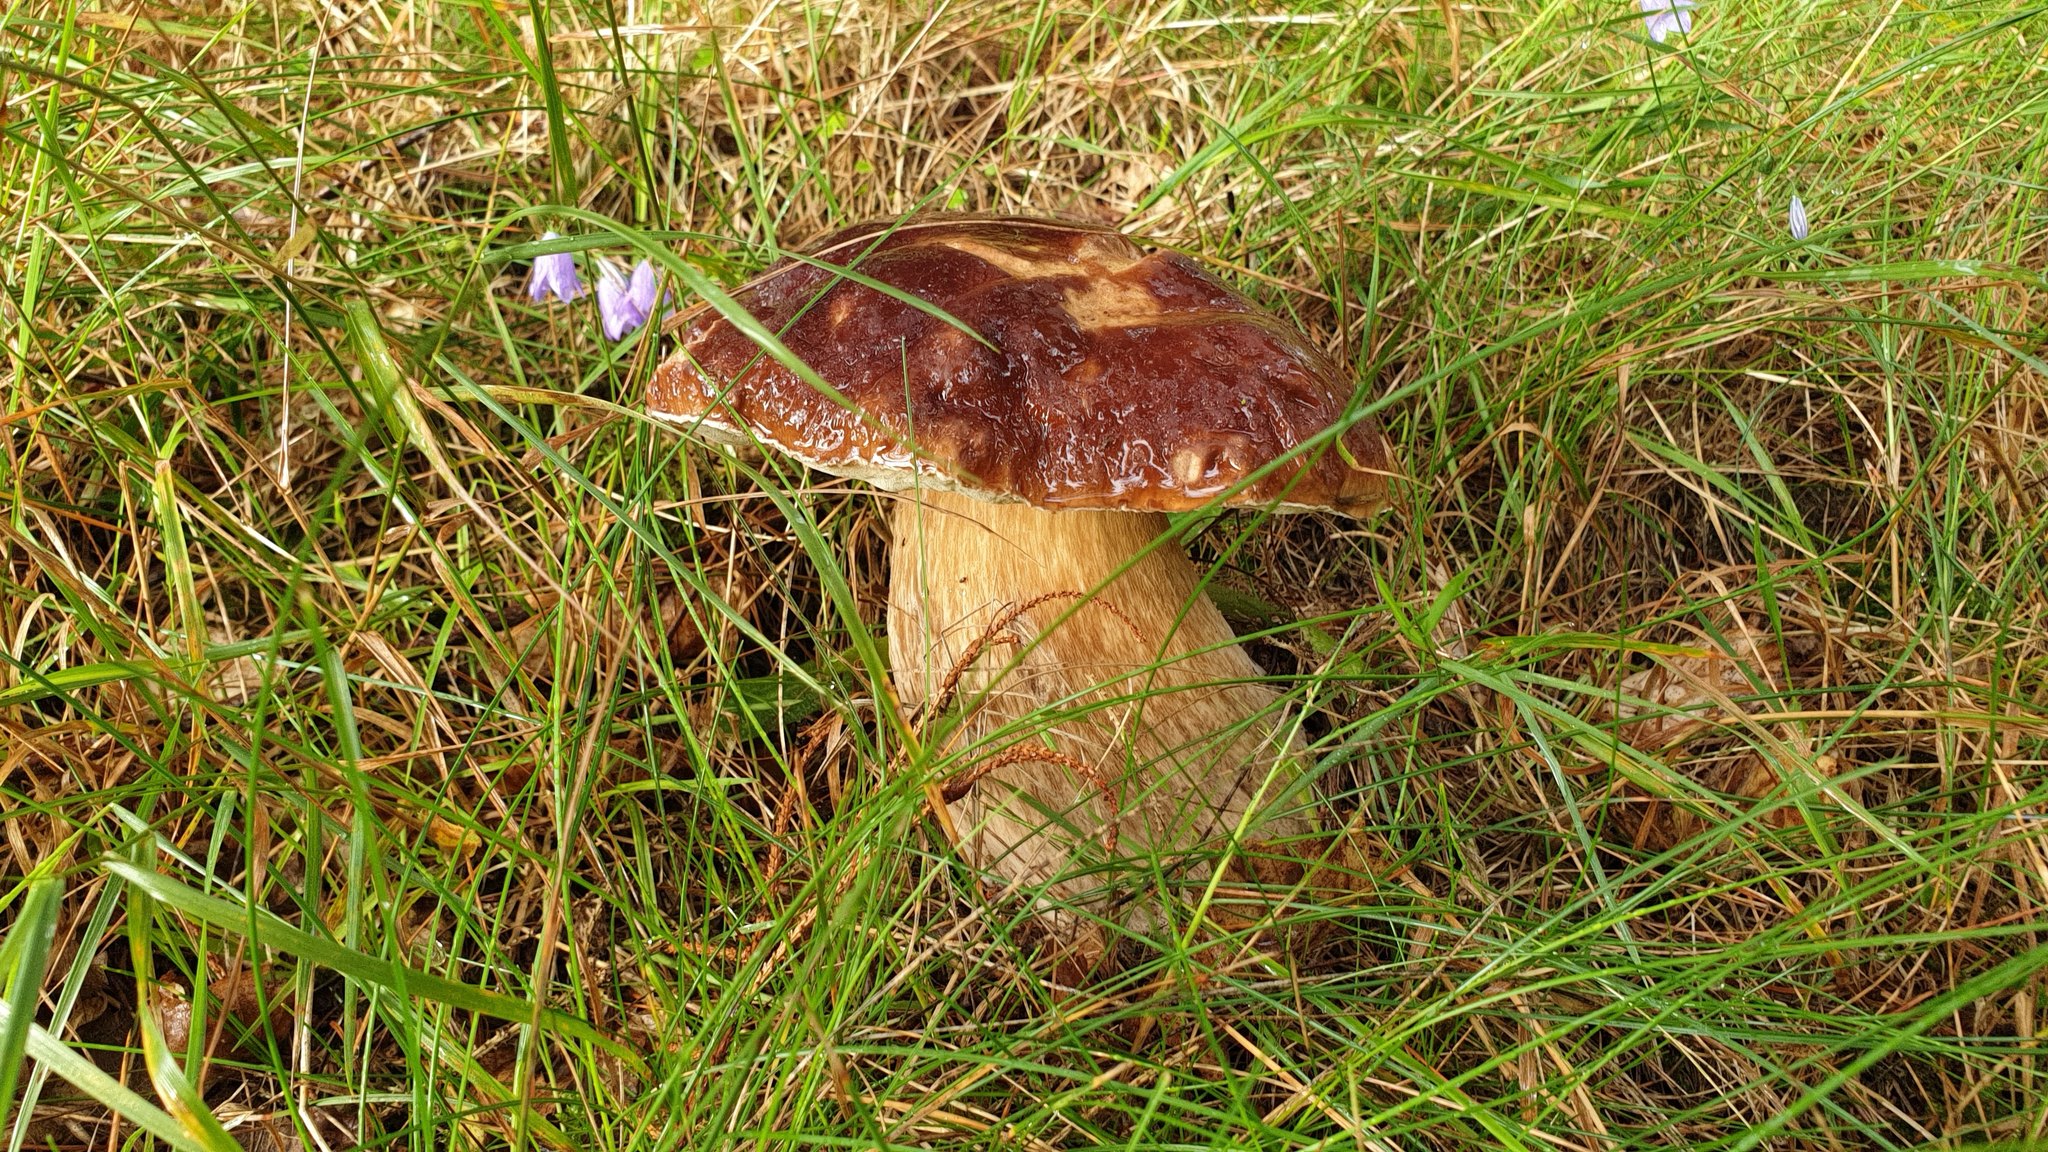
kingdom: Fungi
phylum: Basidiomycota
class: Agaricomycetes
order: Boletales
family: Boletaceae
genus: Boletus
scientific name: Boletus edulis
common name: Cep
